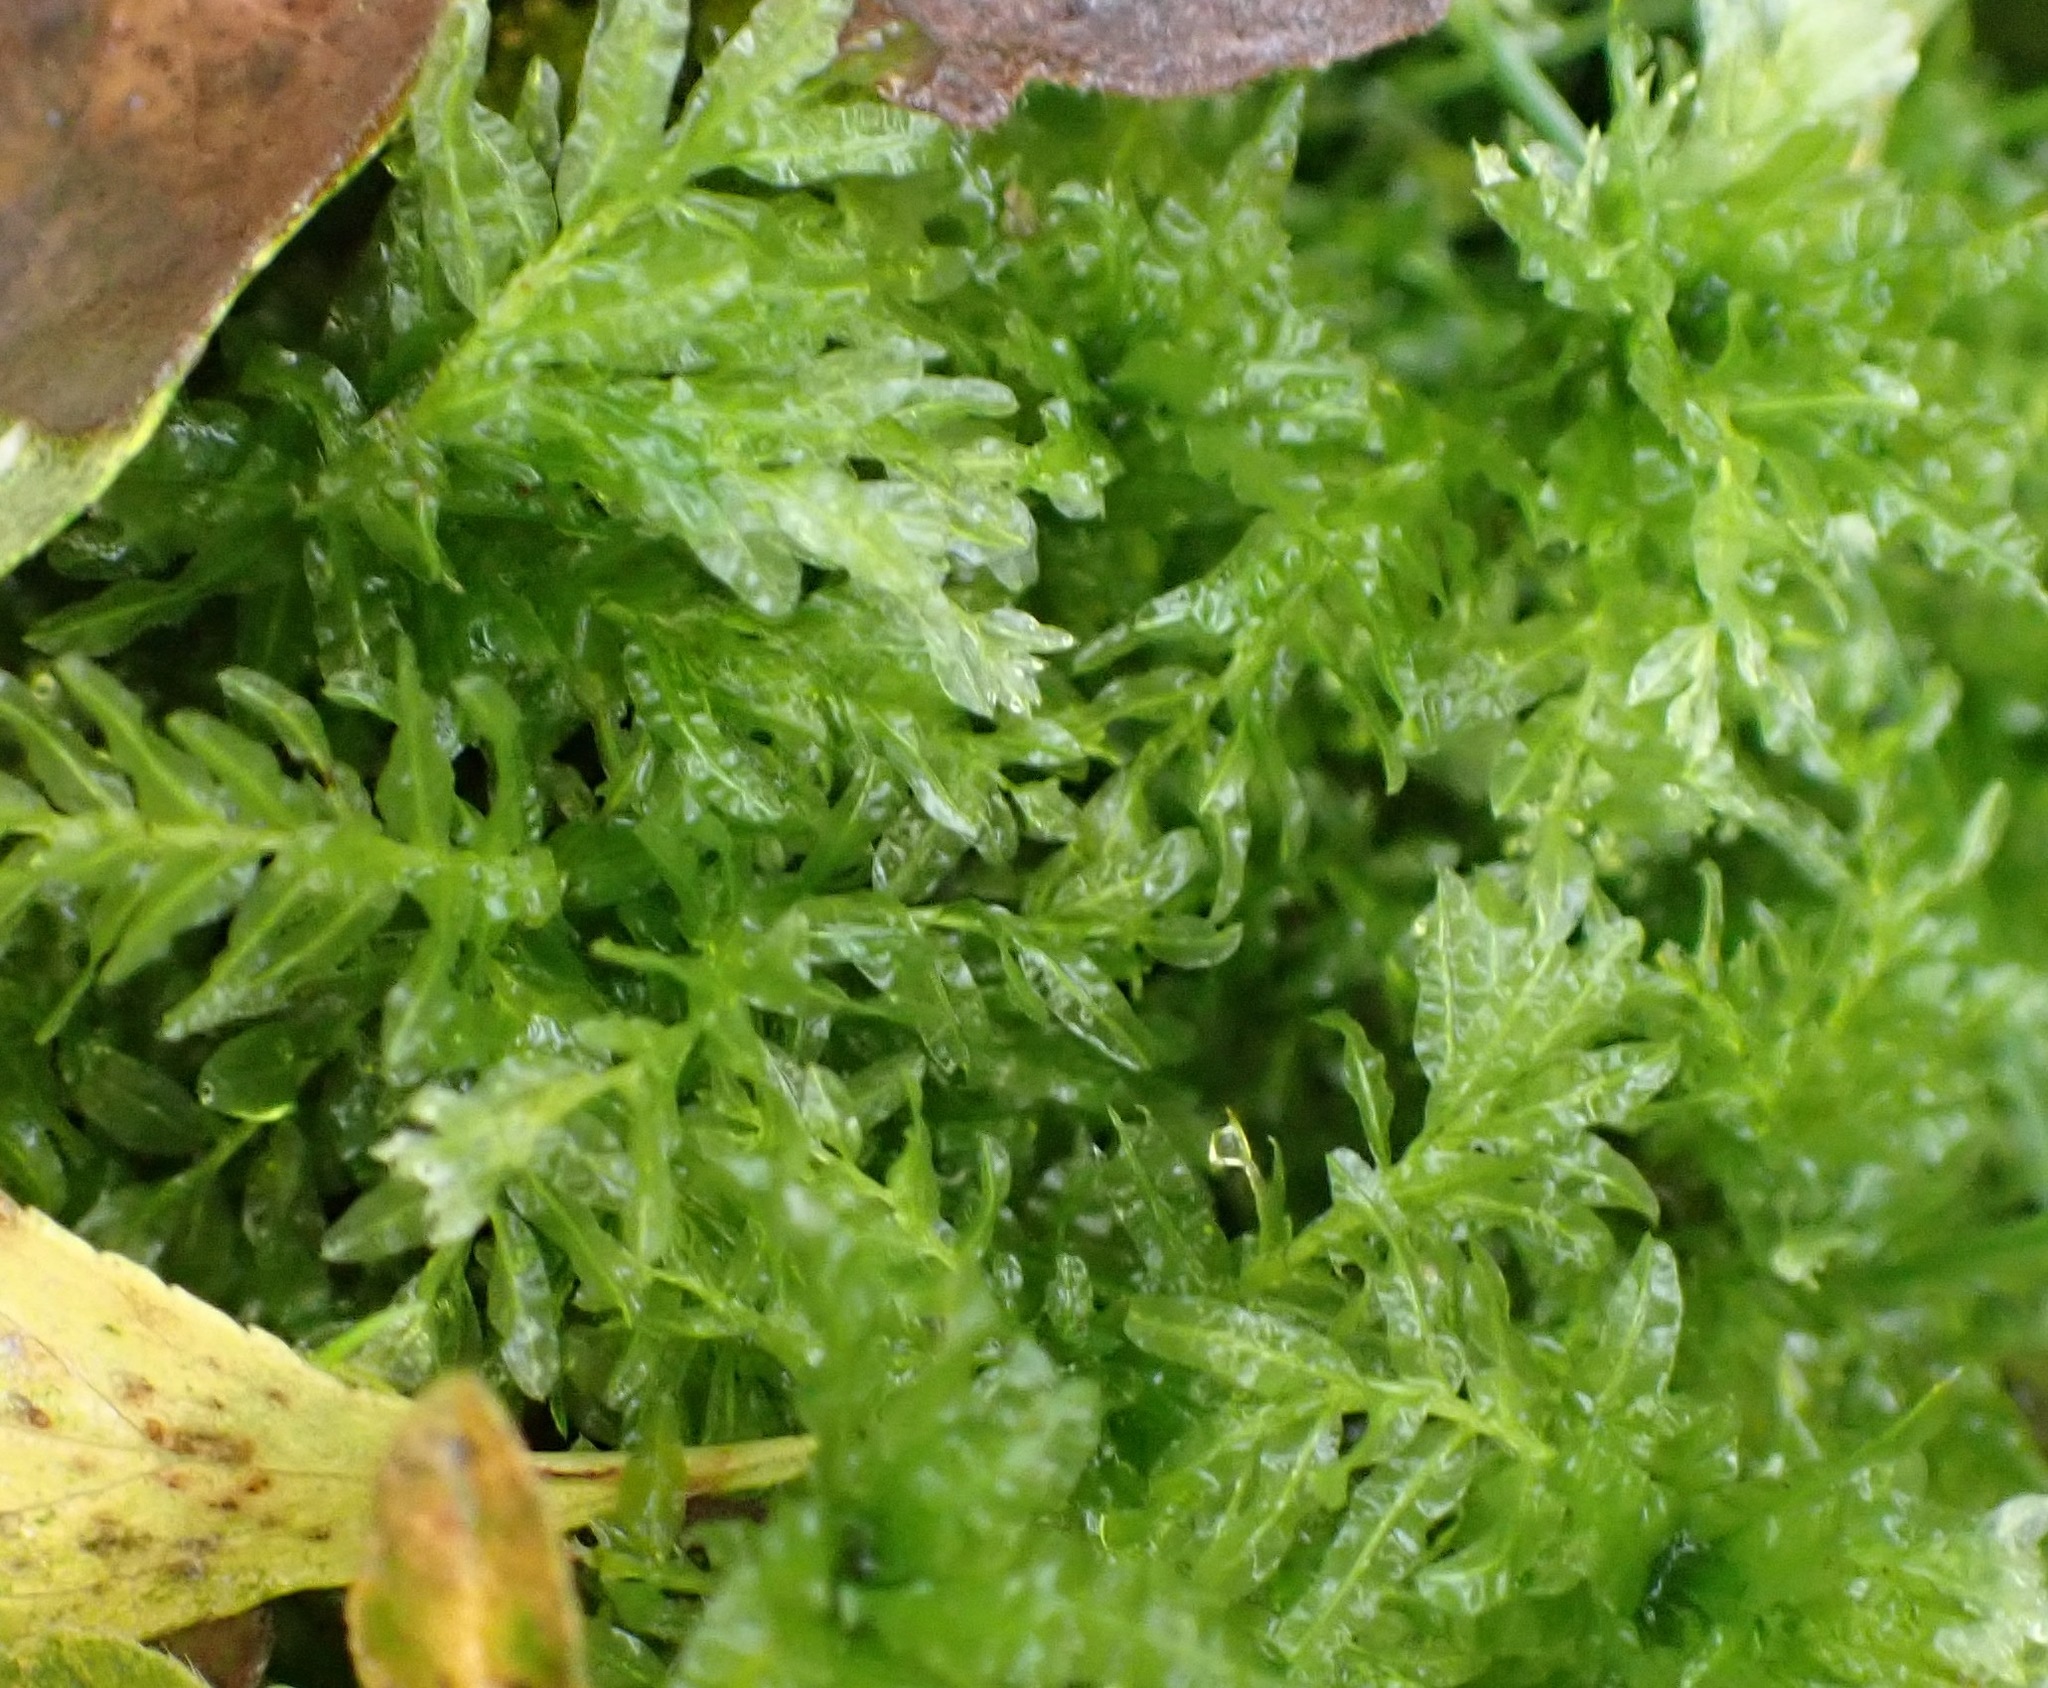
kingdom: Plantae
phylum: Bryophyta
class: Bryopsida
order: Bryales
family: Mniaceae
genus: Plagiomnium
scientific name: Plagiomnium undulatum
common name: Hart's-tongue thyme-moss
